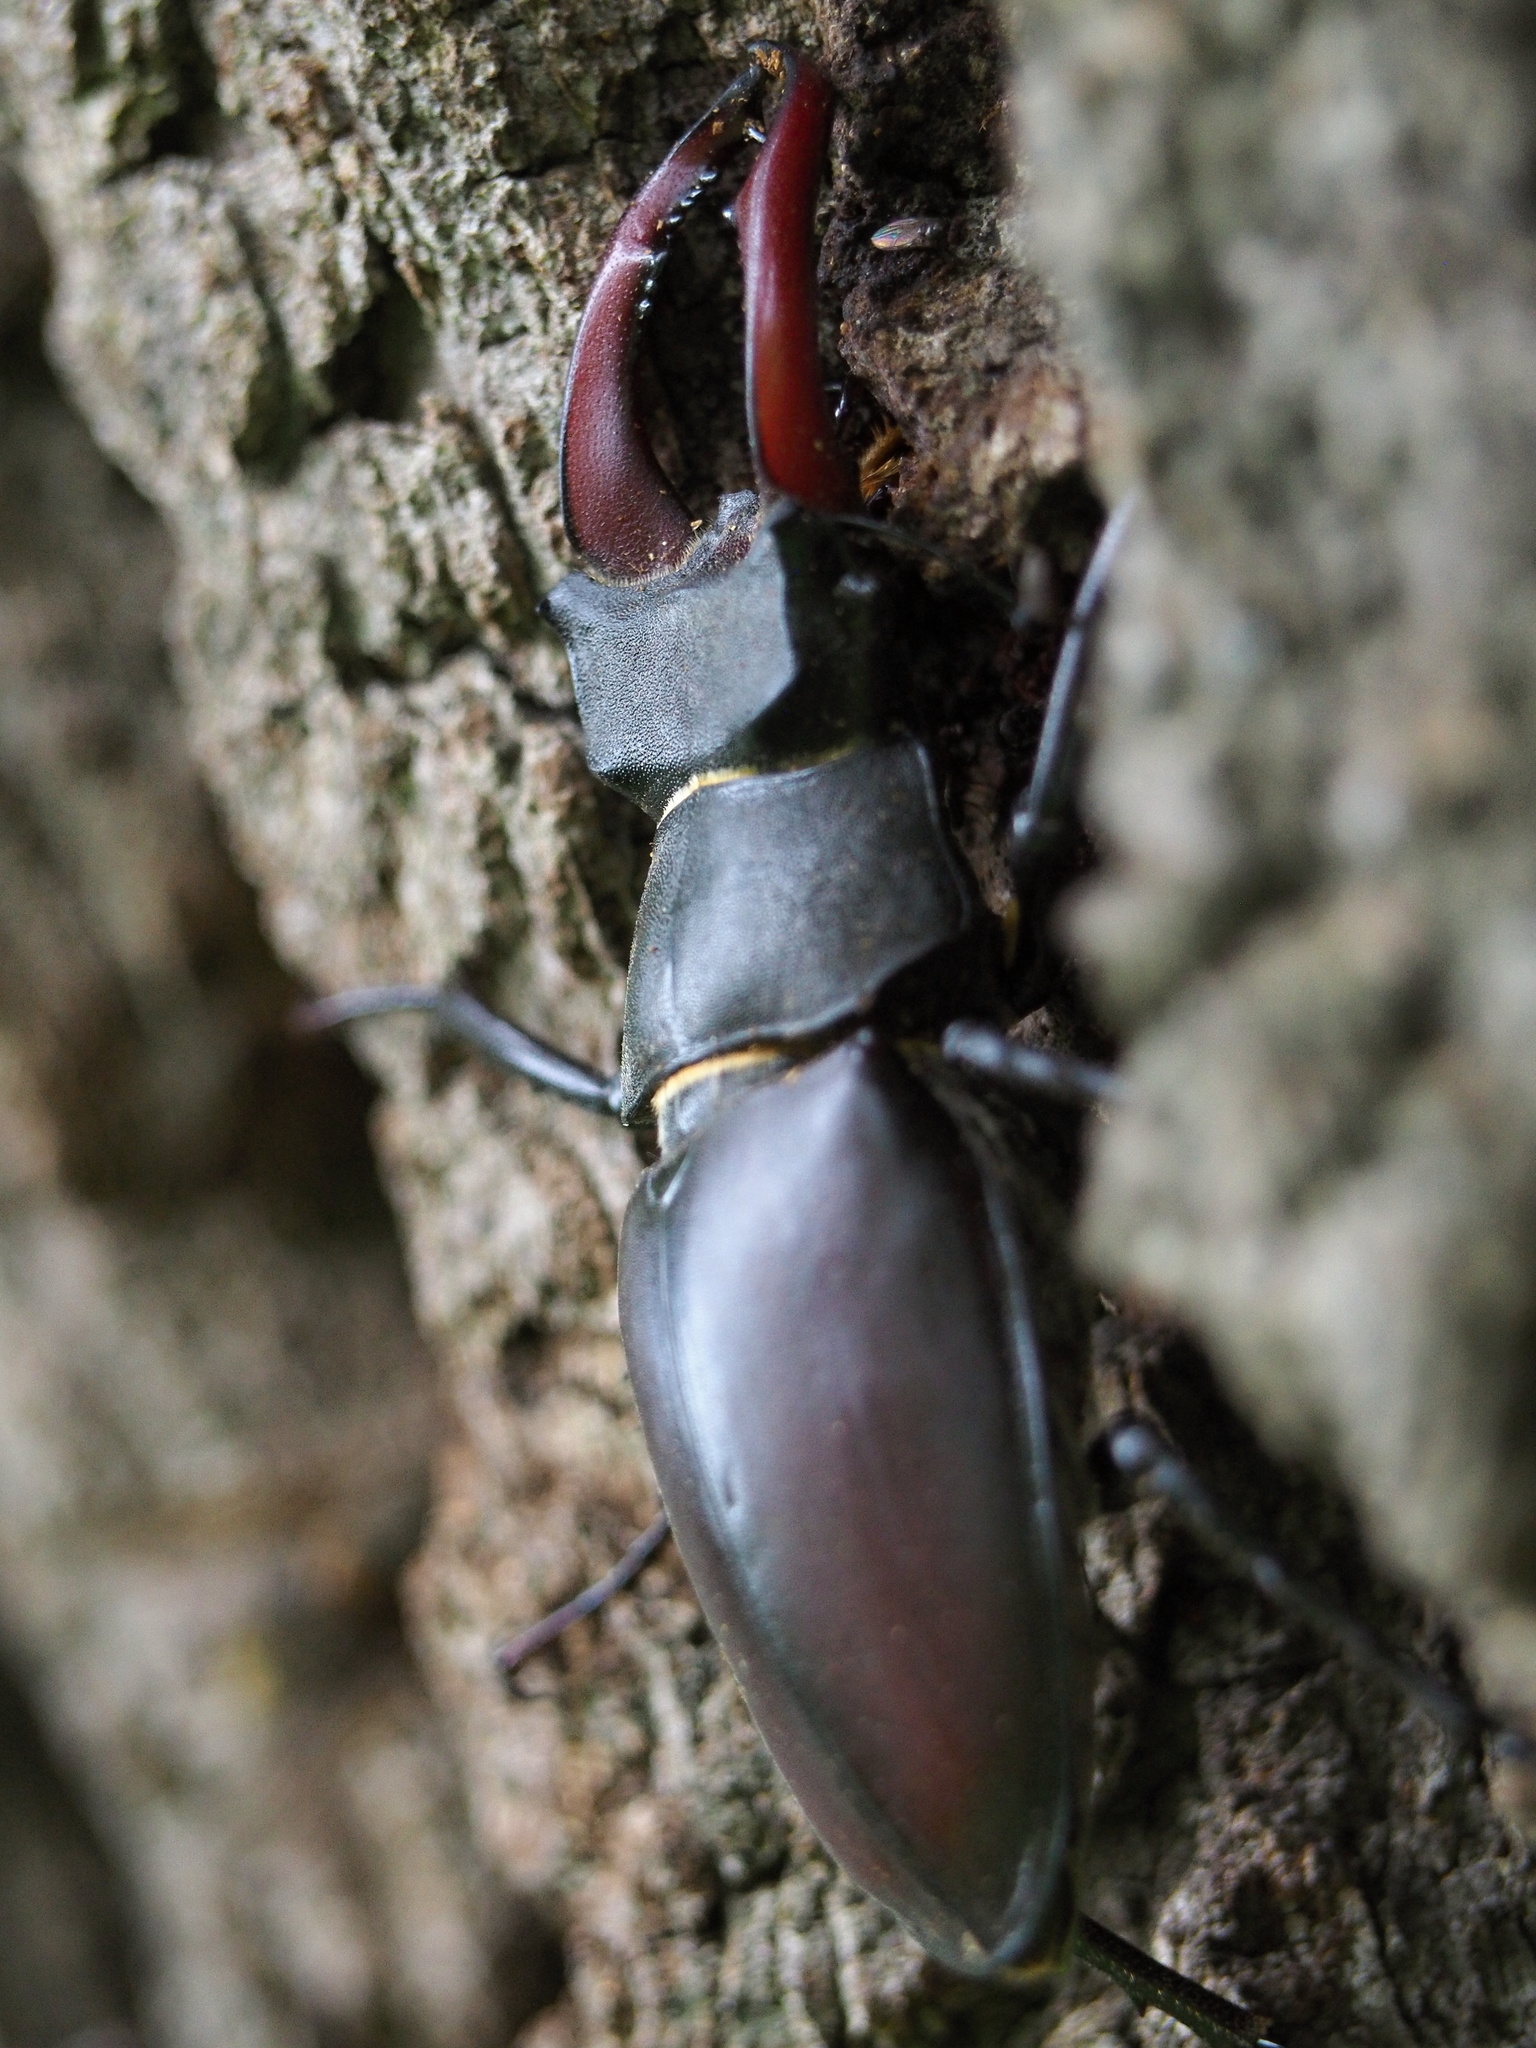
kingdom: Animalia
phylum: Arthropoda
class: Insecta
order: Coleoptera
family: Lucanidae
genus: Lucanus
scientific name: Lucanus cervus
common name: Stag beetle
